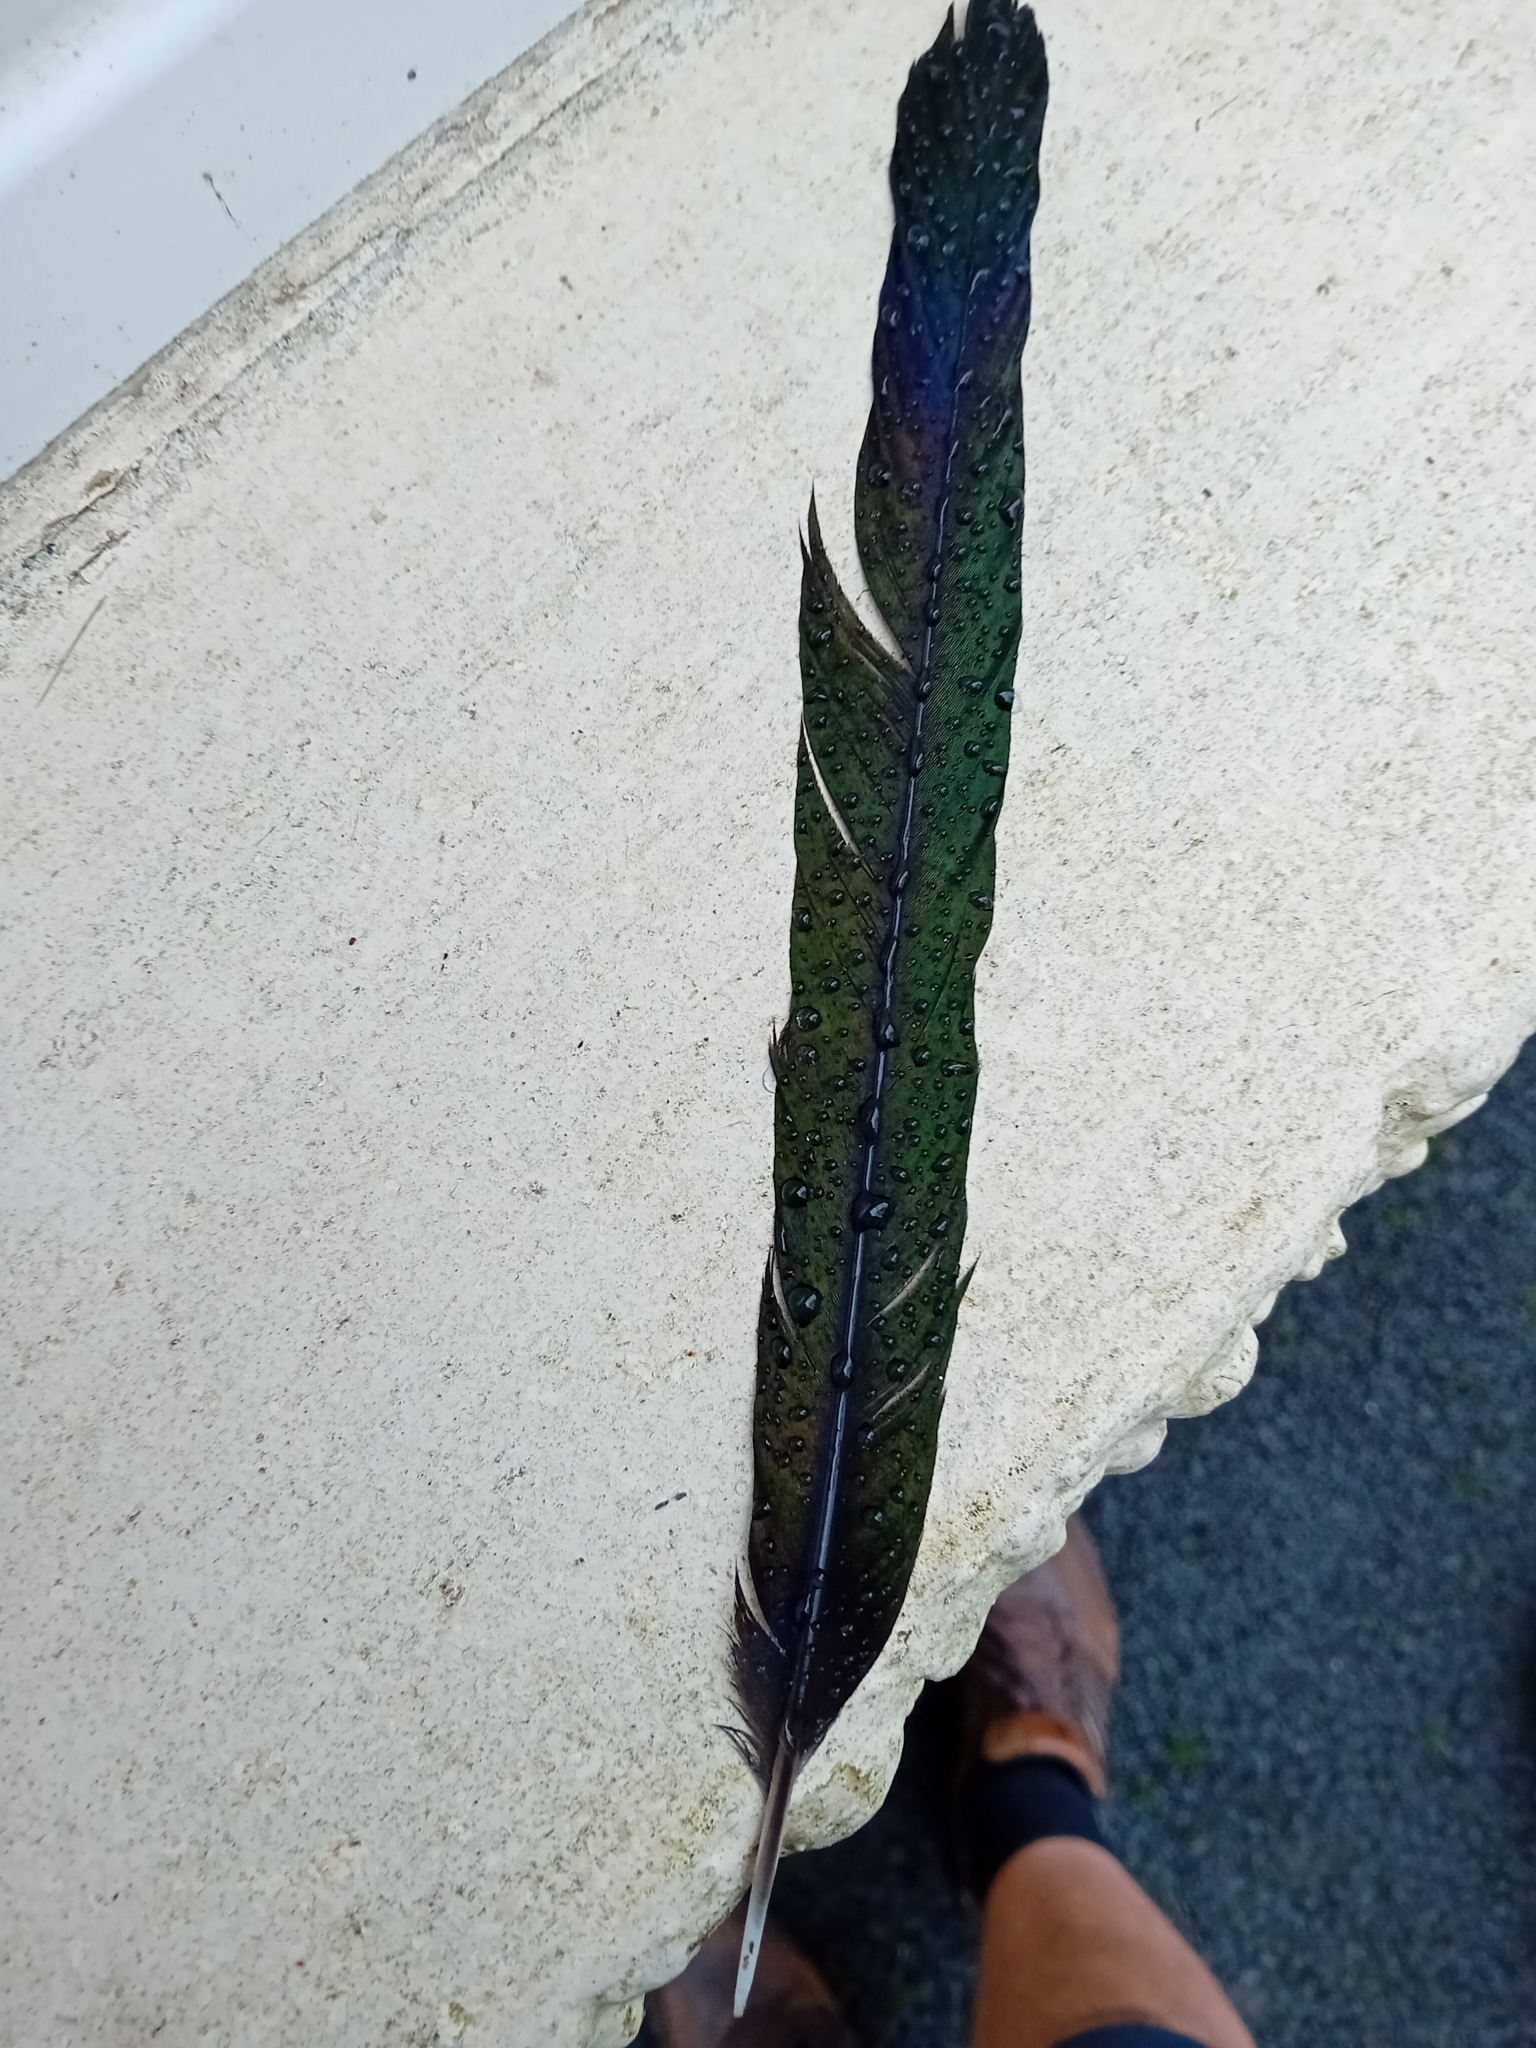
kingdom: Animalia
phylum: Chordata
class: Aves
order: Passeriformes
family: Corvidae
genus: Pica
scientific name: Pica pica
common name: Eurasian magpie
